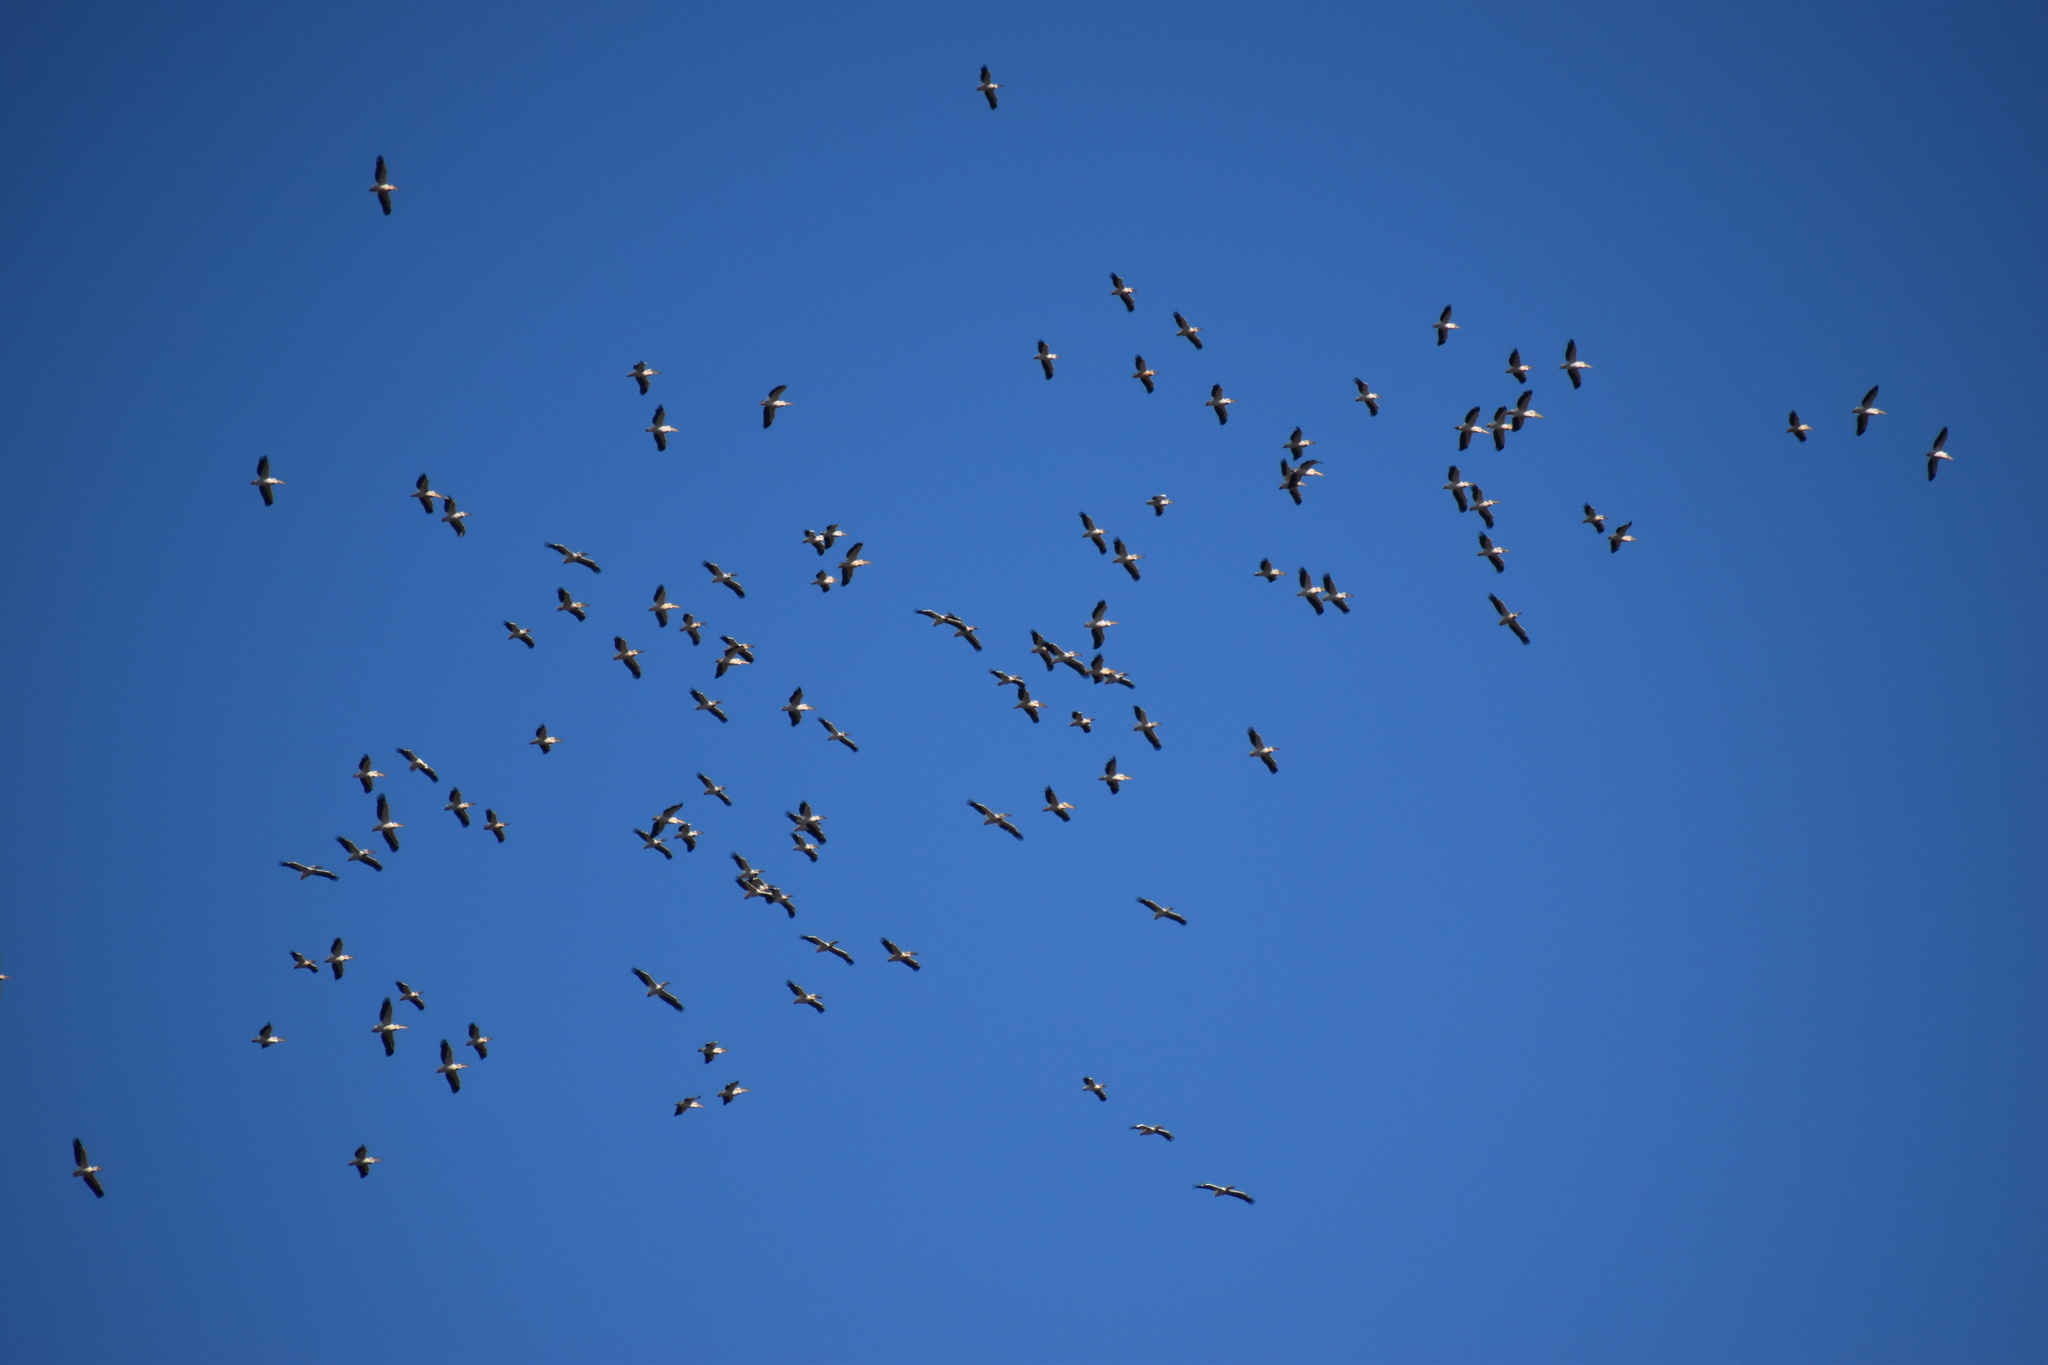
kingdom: Animalia
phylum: Chordata
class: Aves
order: Pelecaniformes
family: Pelecanidae
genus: Pelecanus
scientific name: Pelecanus onocrotalus
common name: Great white pelican
